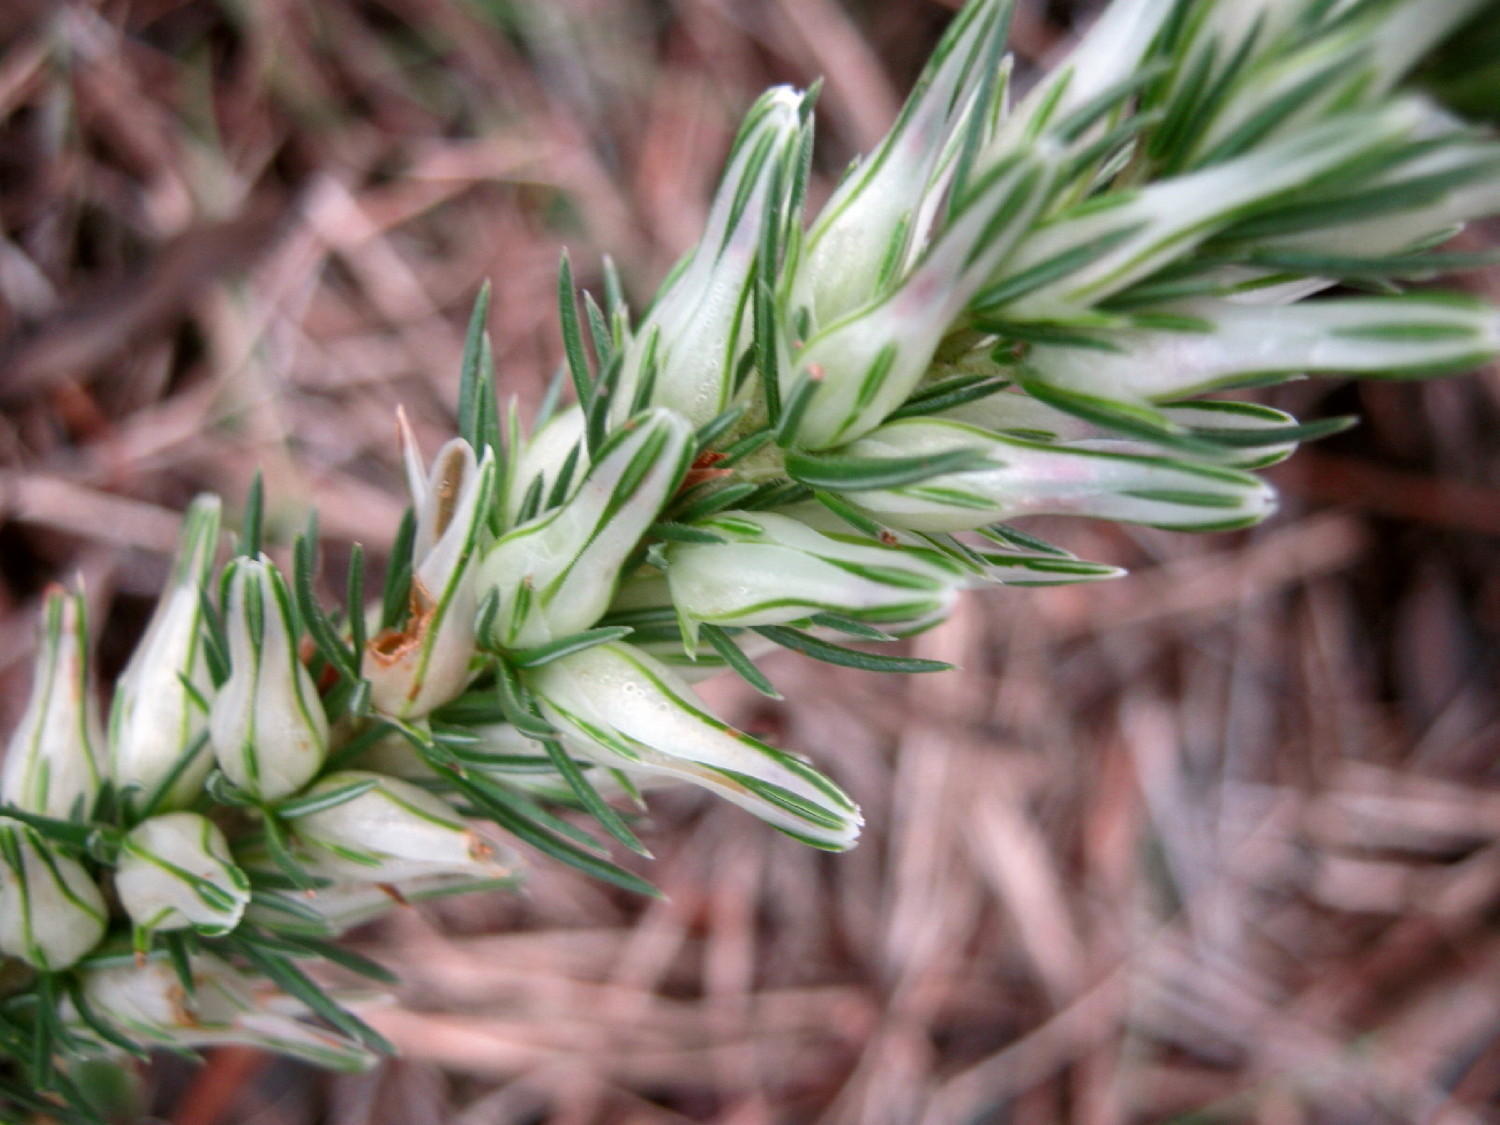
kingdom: Plantae
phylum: Tracheophyta
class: Magnoliopsida
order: Ericales
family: Ericaceae
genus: Erica
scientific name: Erica nabea
